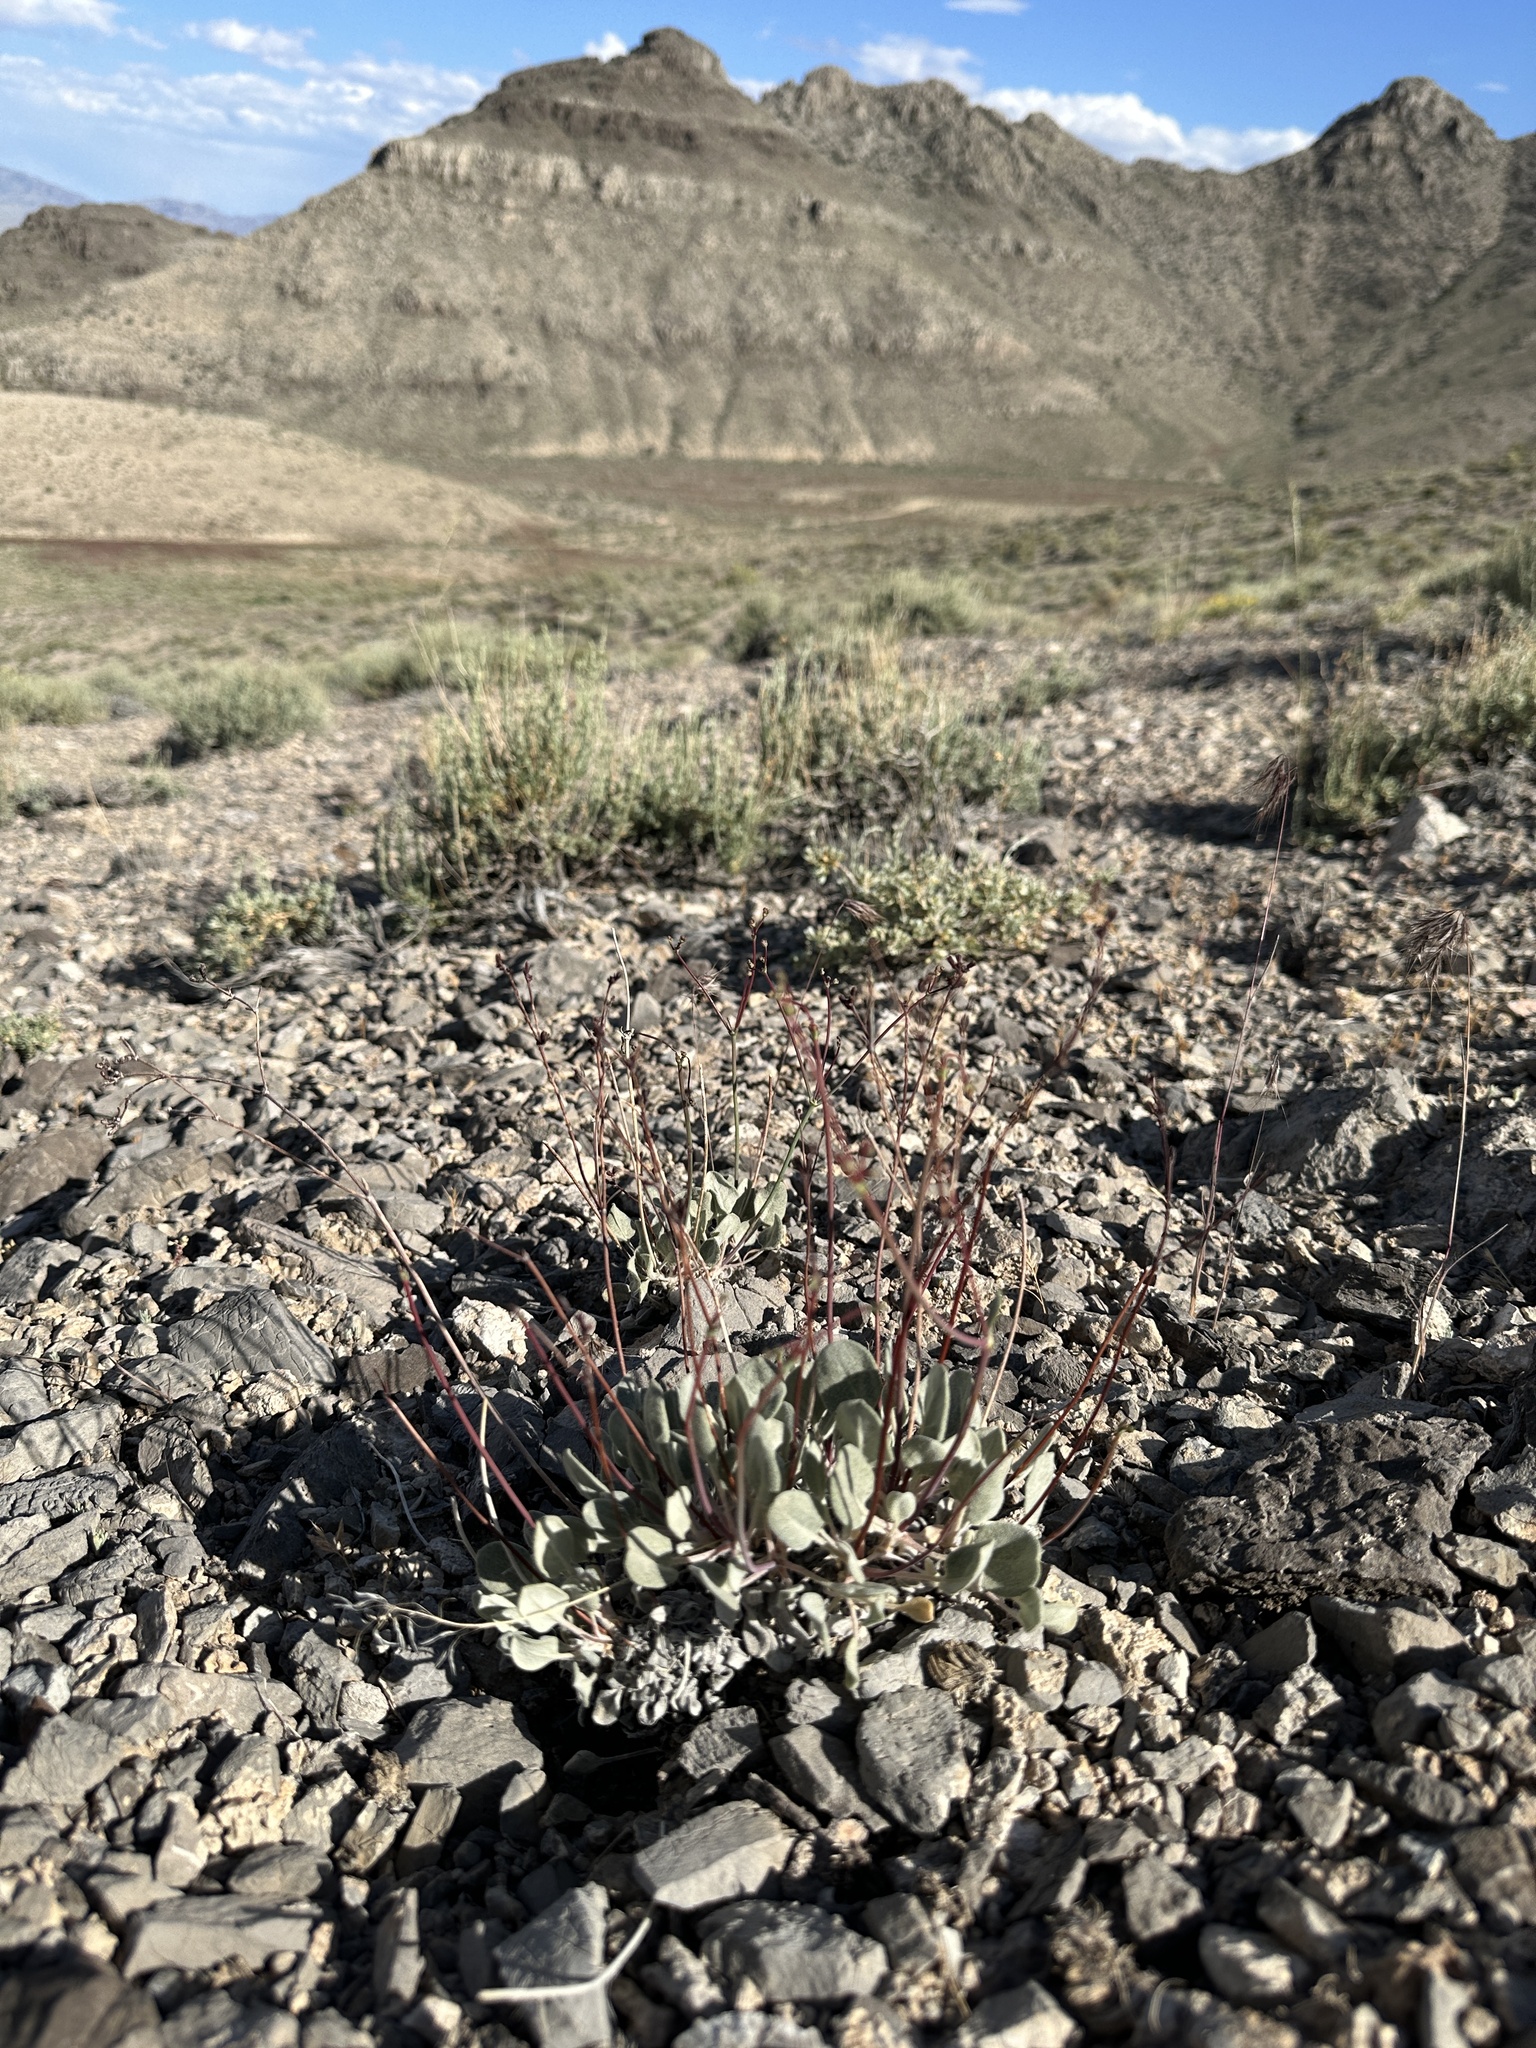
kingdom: Plantae
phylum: Tracheophyta
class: Magnoliopsida
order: Caryophyllales
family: Polygonaceae
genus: Eriogonum
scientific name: Eriogonum eremicum
